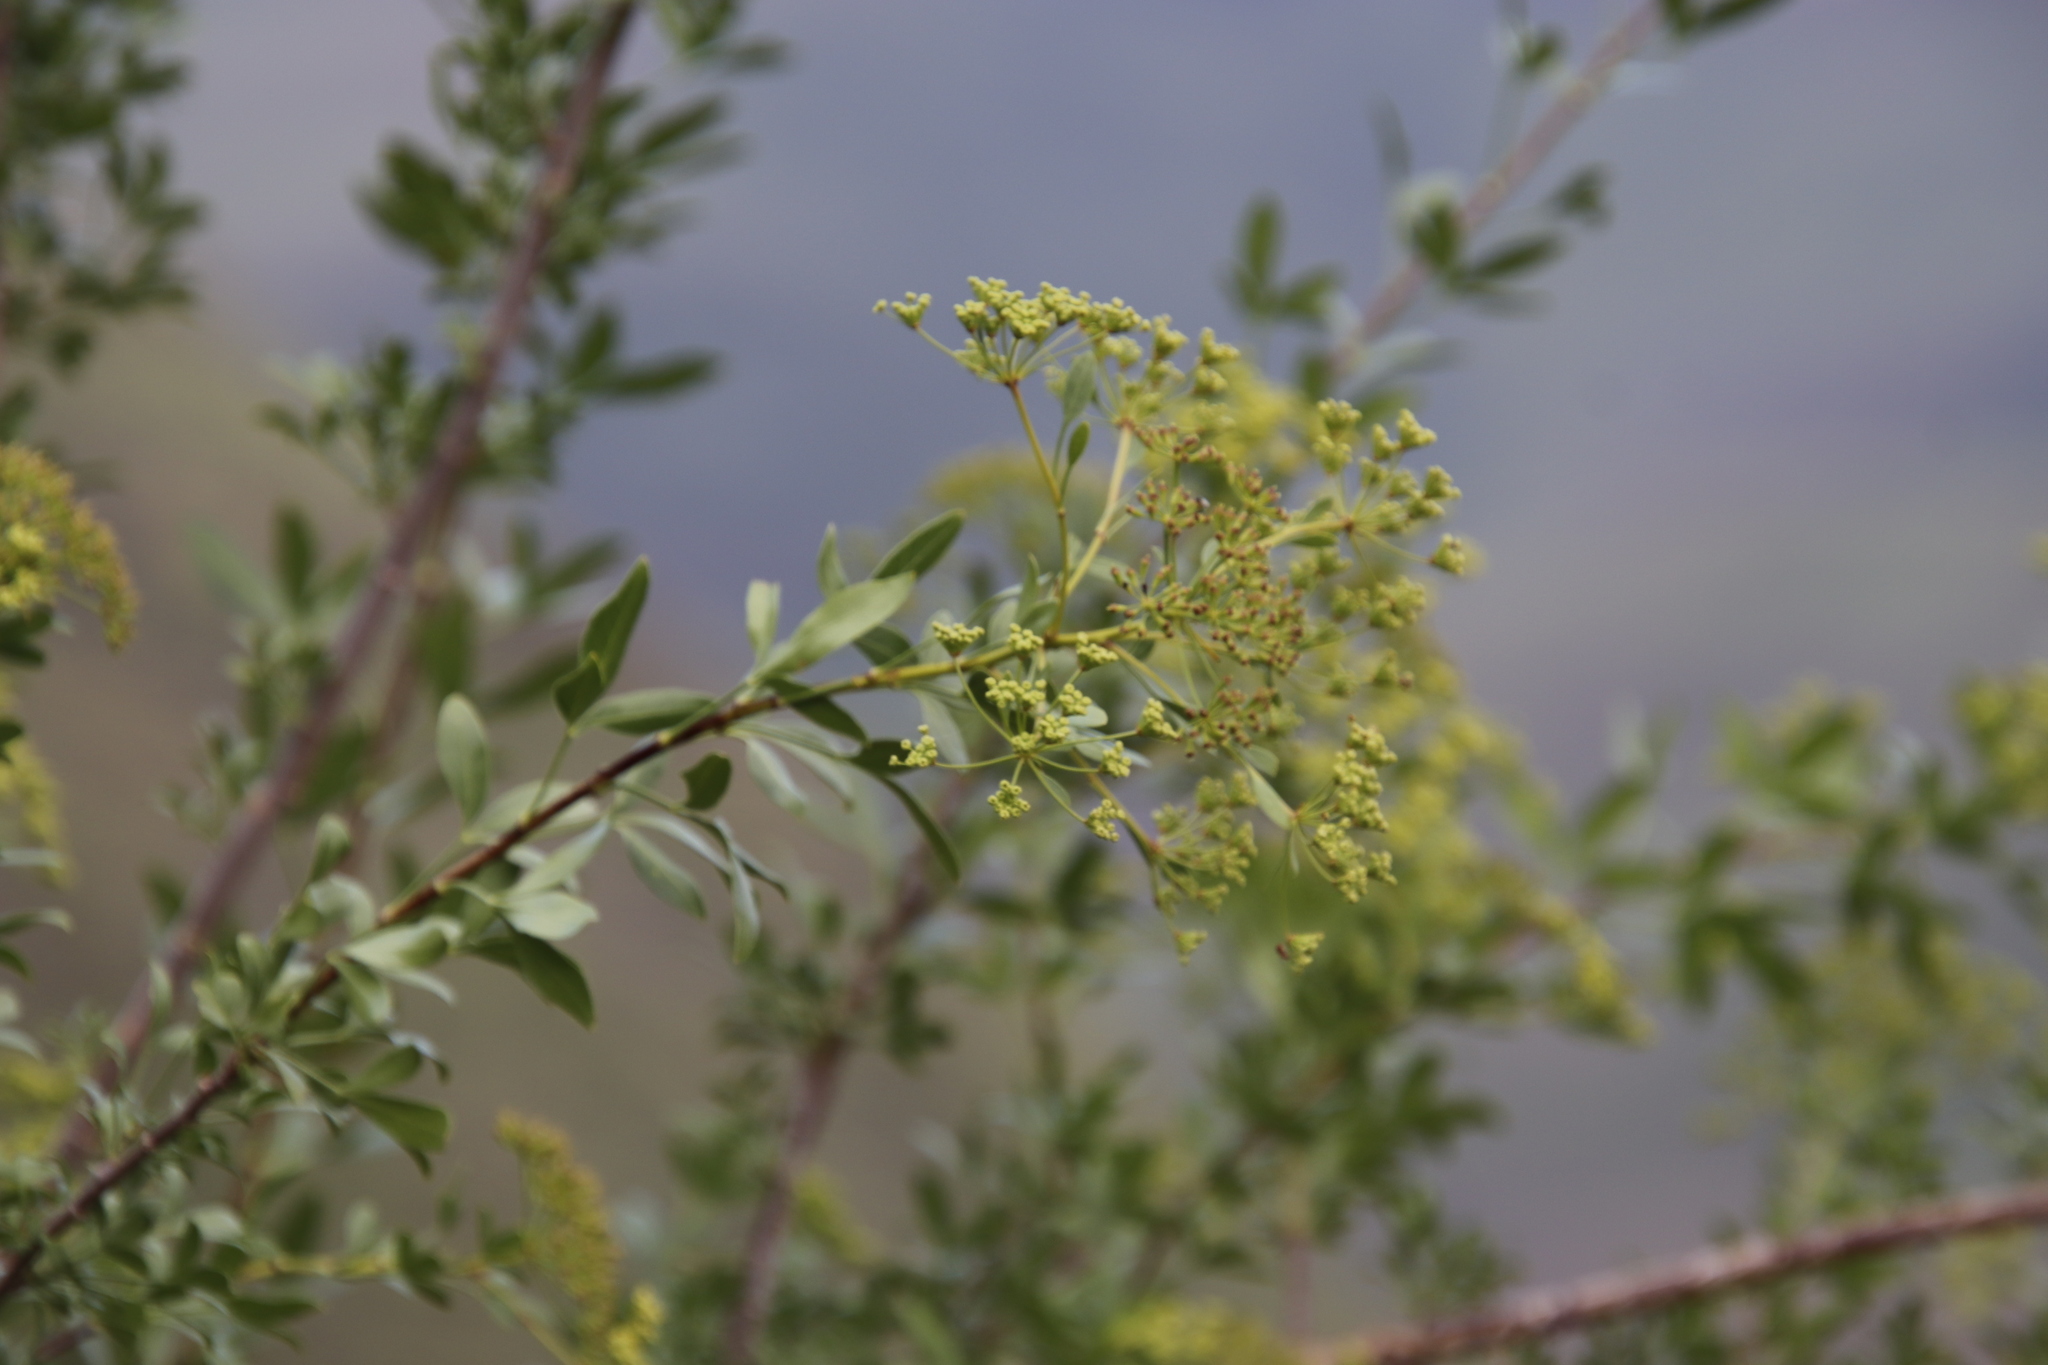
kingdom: Plantae
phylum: Tracheophyta
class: Magnoliopsida
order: Apiales
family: Apiaceae
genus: Polemannia
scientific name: Polemannia simplicior
